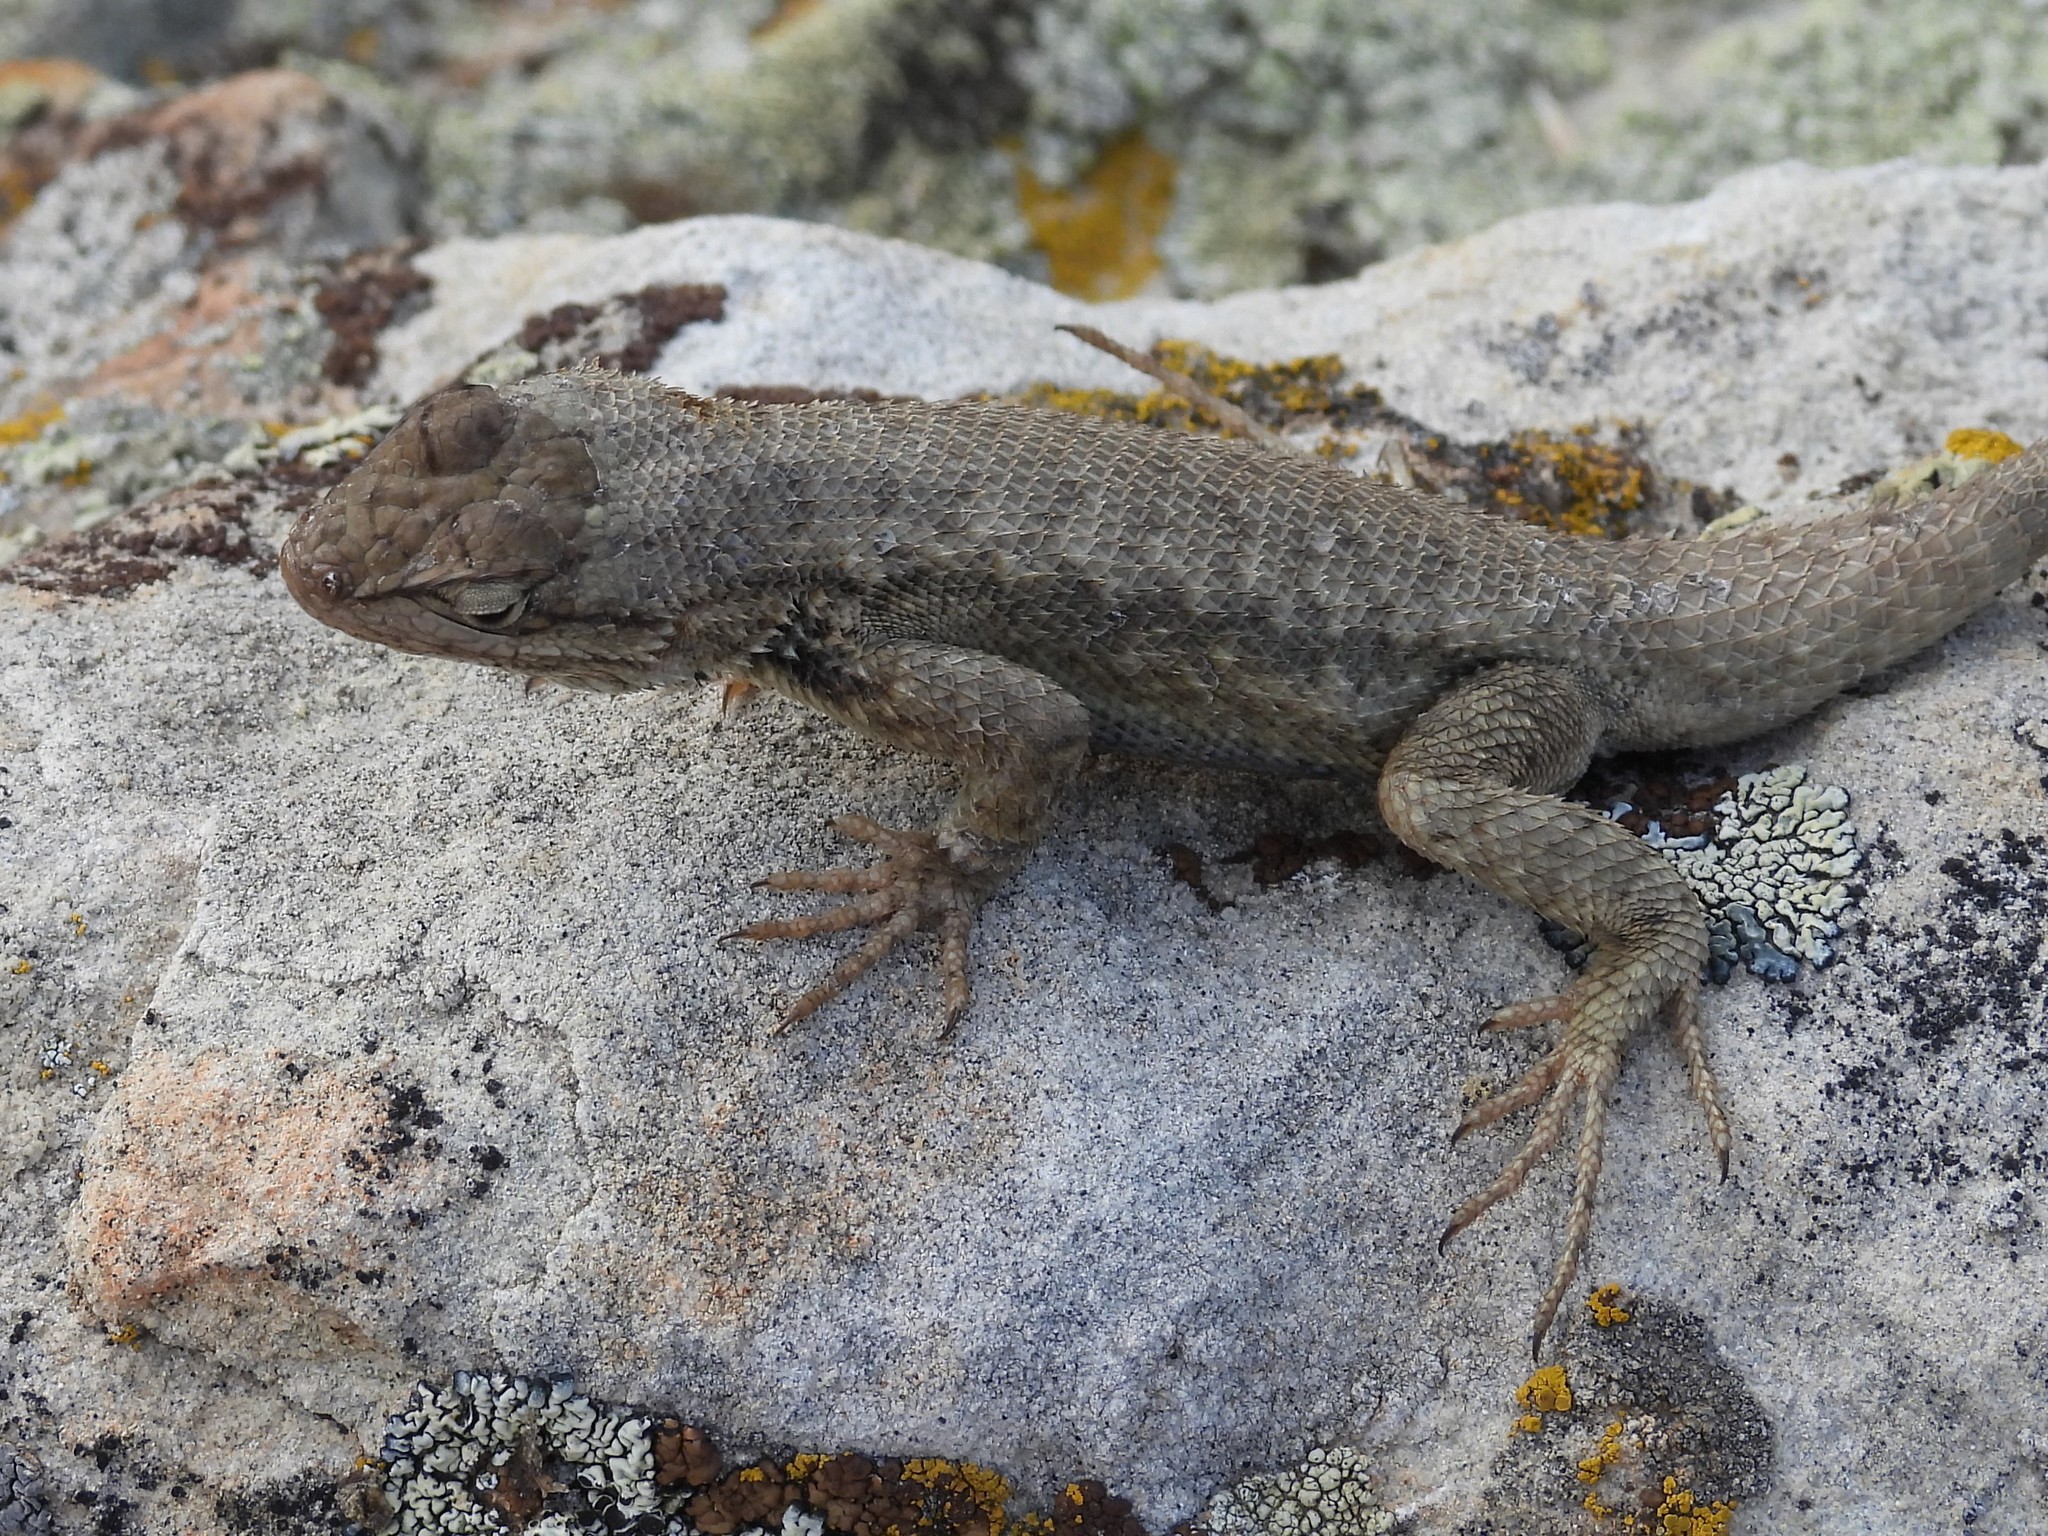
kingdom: Animalia
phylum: Chordata
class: Squamata
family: Phrynosomatidae
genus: Sceloporus
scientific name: Sceloporus tristichus
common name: Plateau fence lizard
